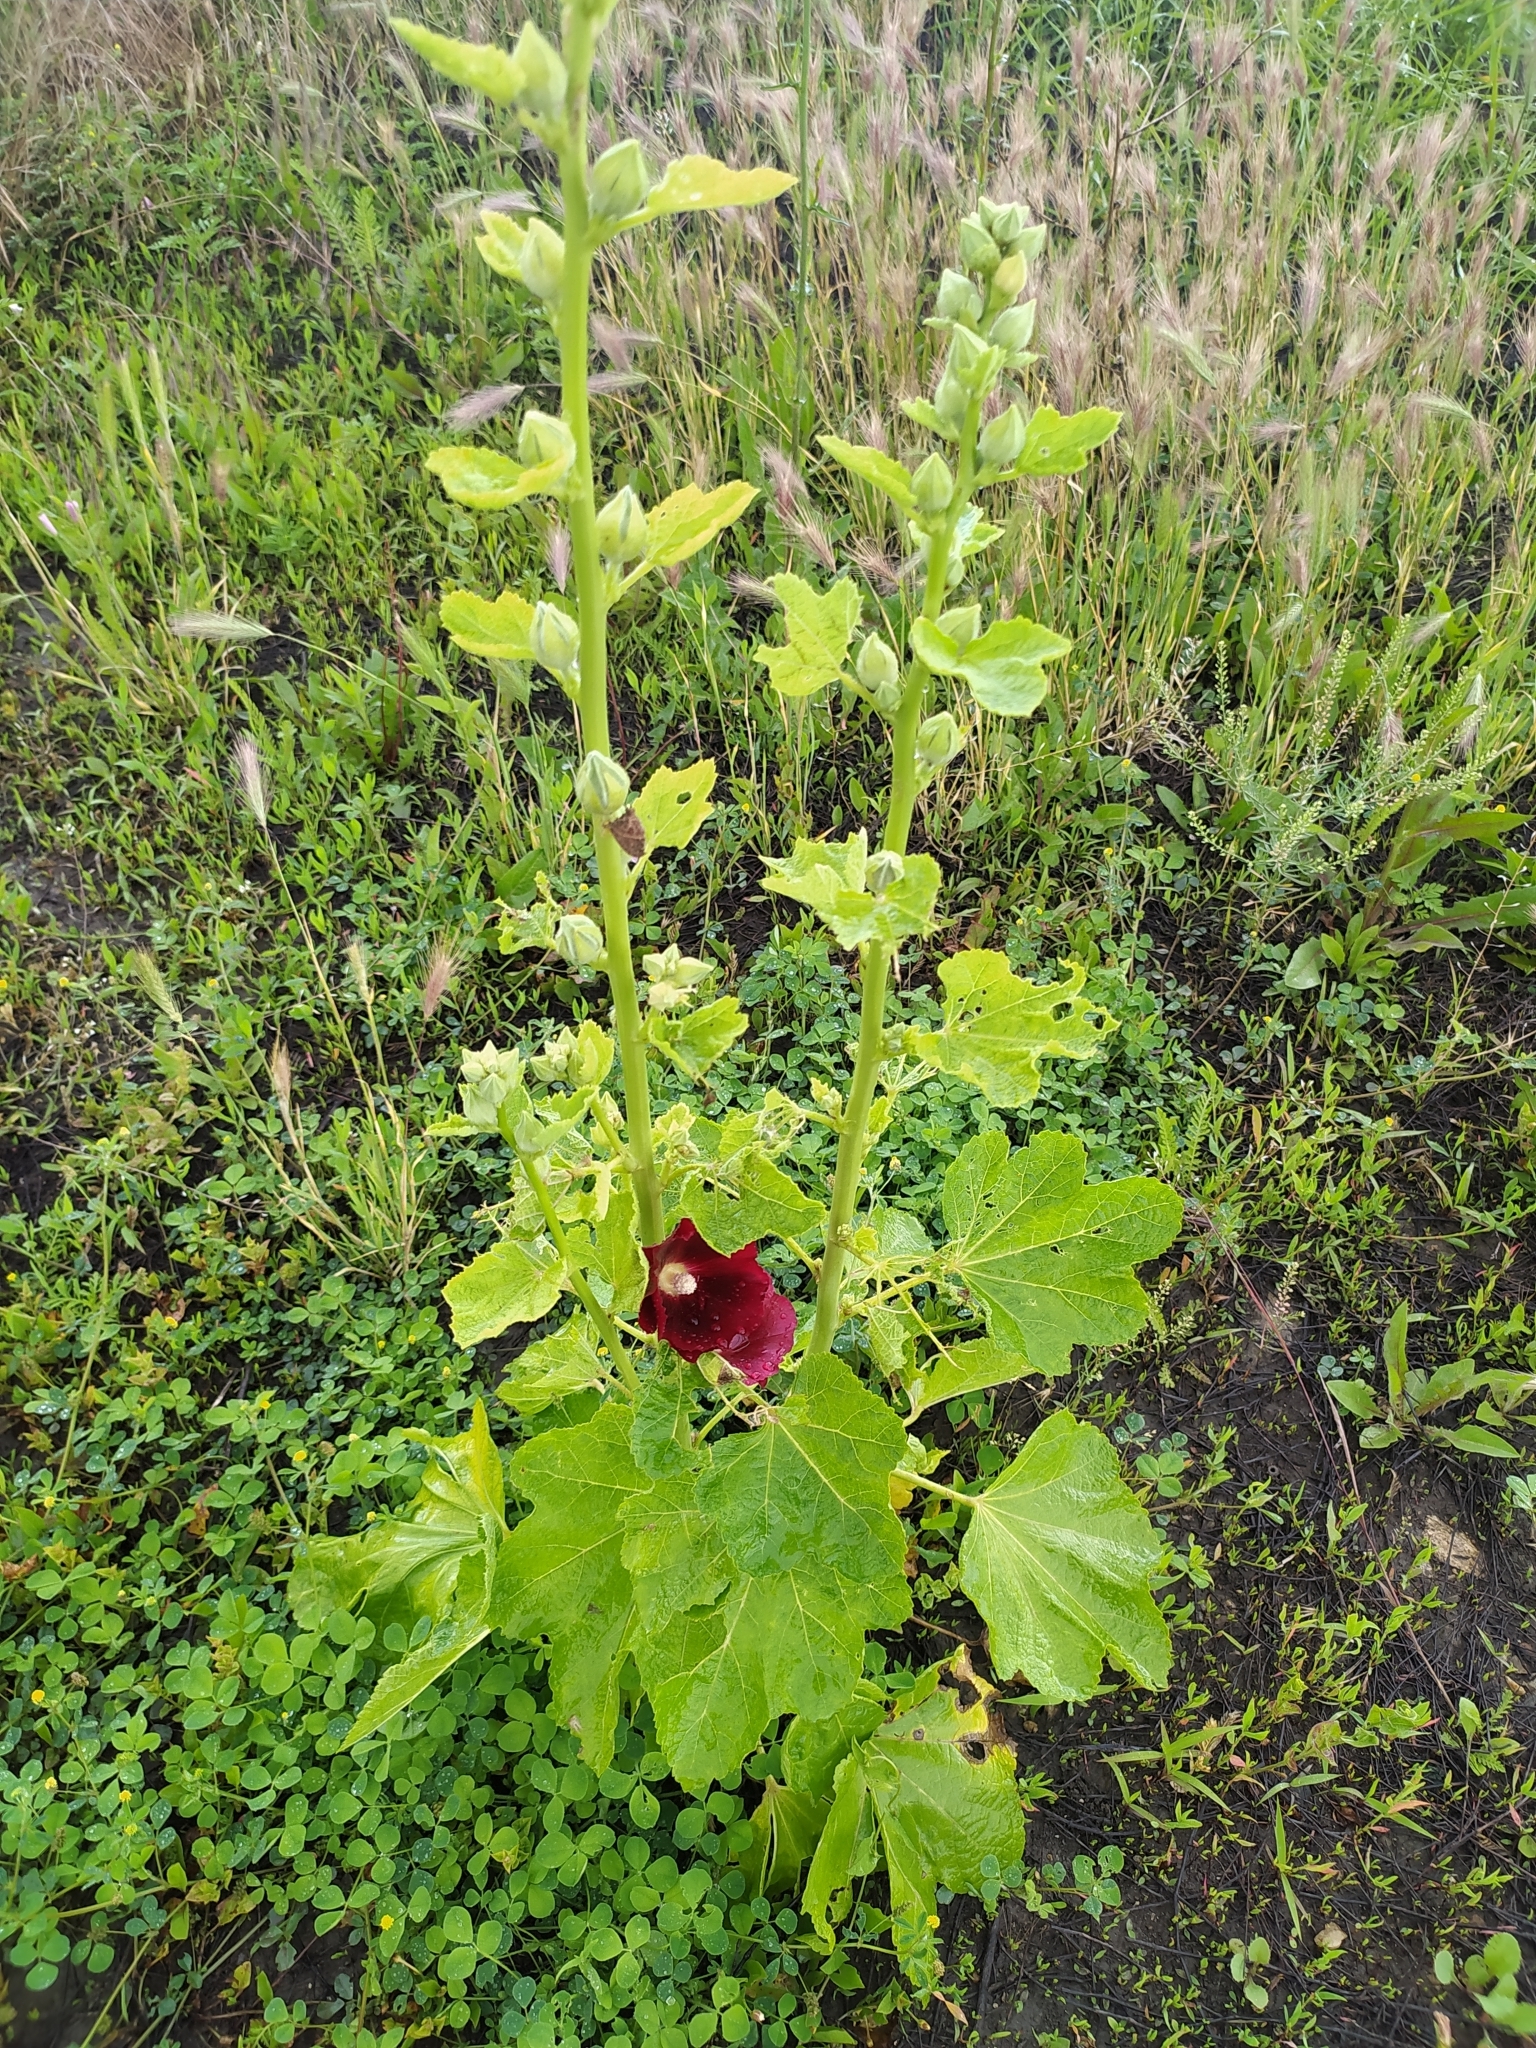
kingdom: Plantae
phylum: Tracheophyta
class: Magnoliopsida
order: Malvales
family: Malvaceae
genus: Alcea
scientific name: Alcea rosea
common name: Hollyhock
